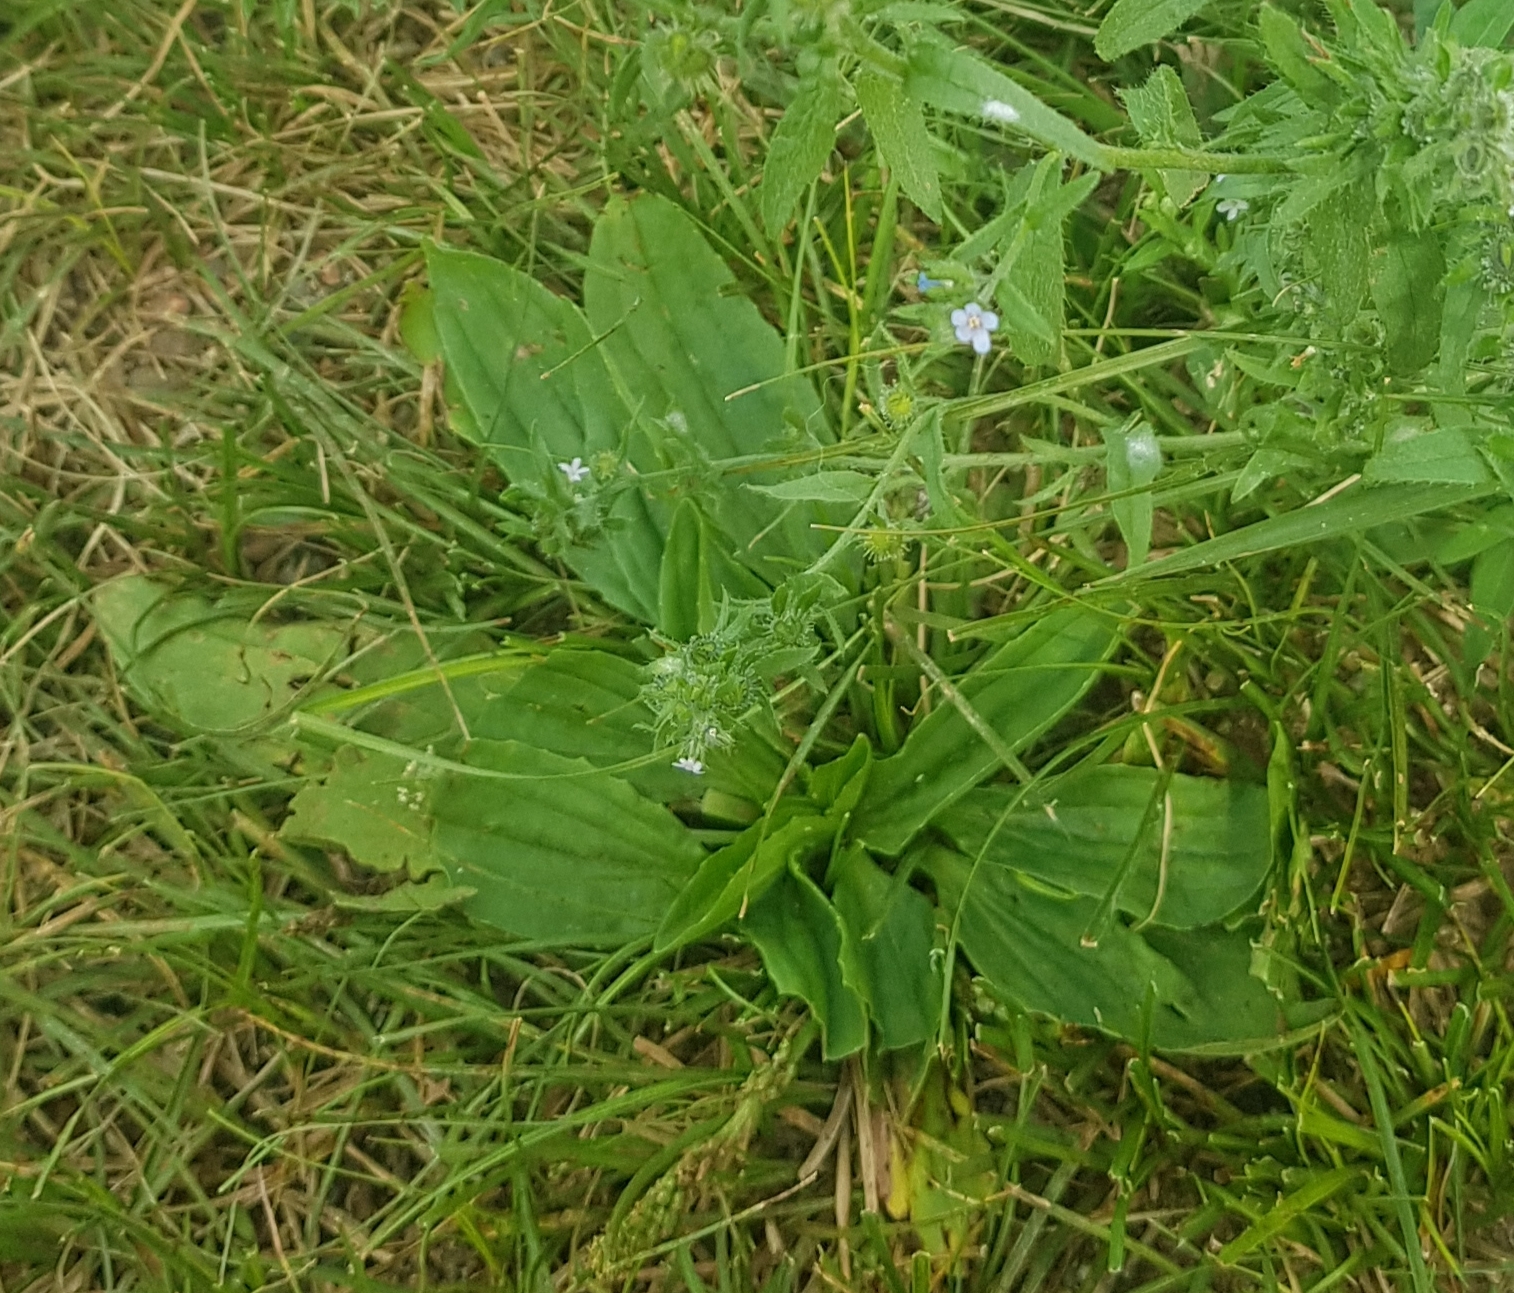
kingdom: Plantae
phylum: Tracheophyta
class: Magnoliopsida
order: Lamiales
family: Plantaginaceae
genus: Plantago
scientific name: Plantago depressa
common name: Depressed plantain
